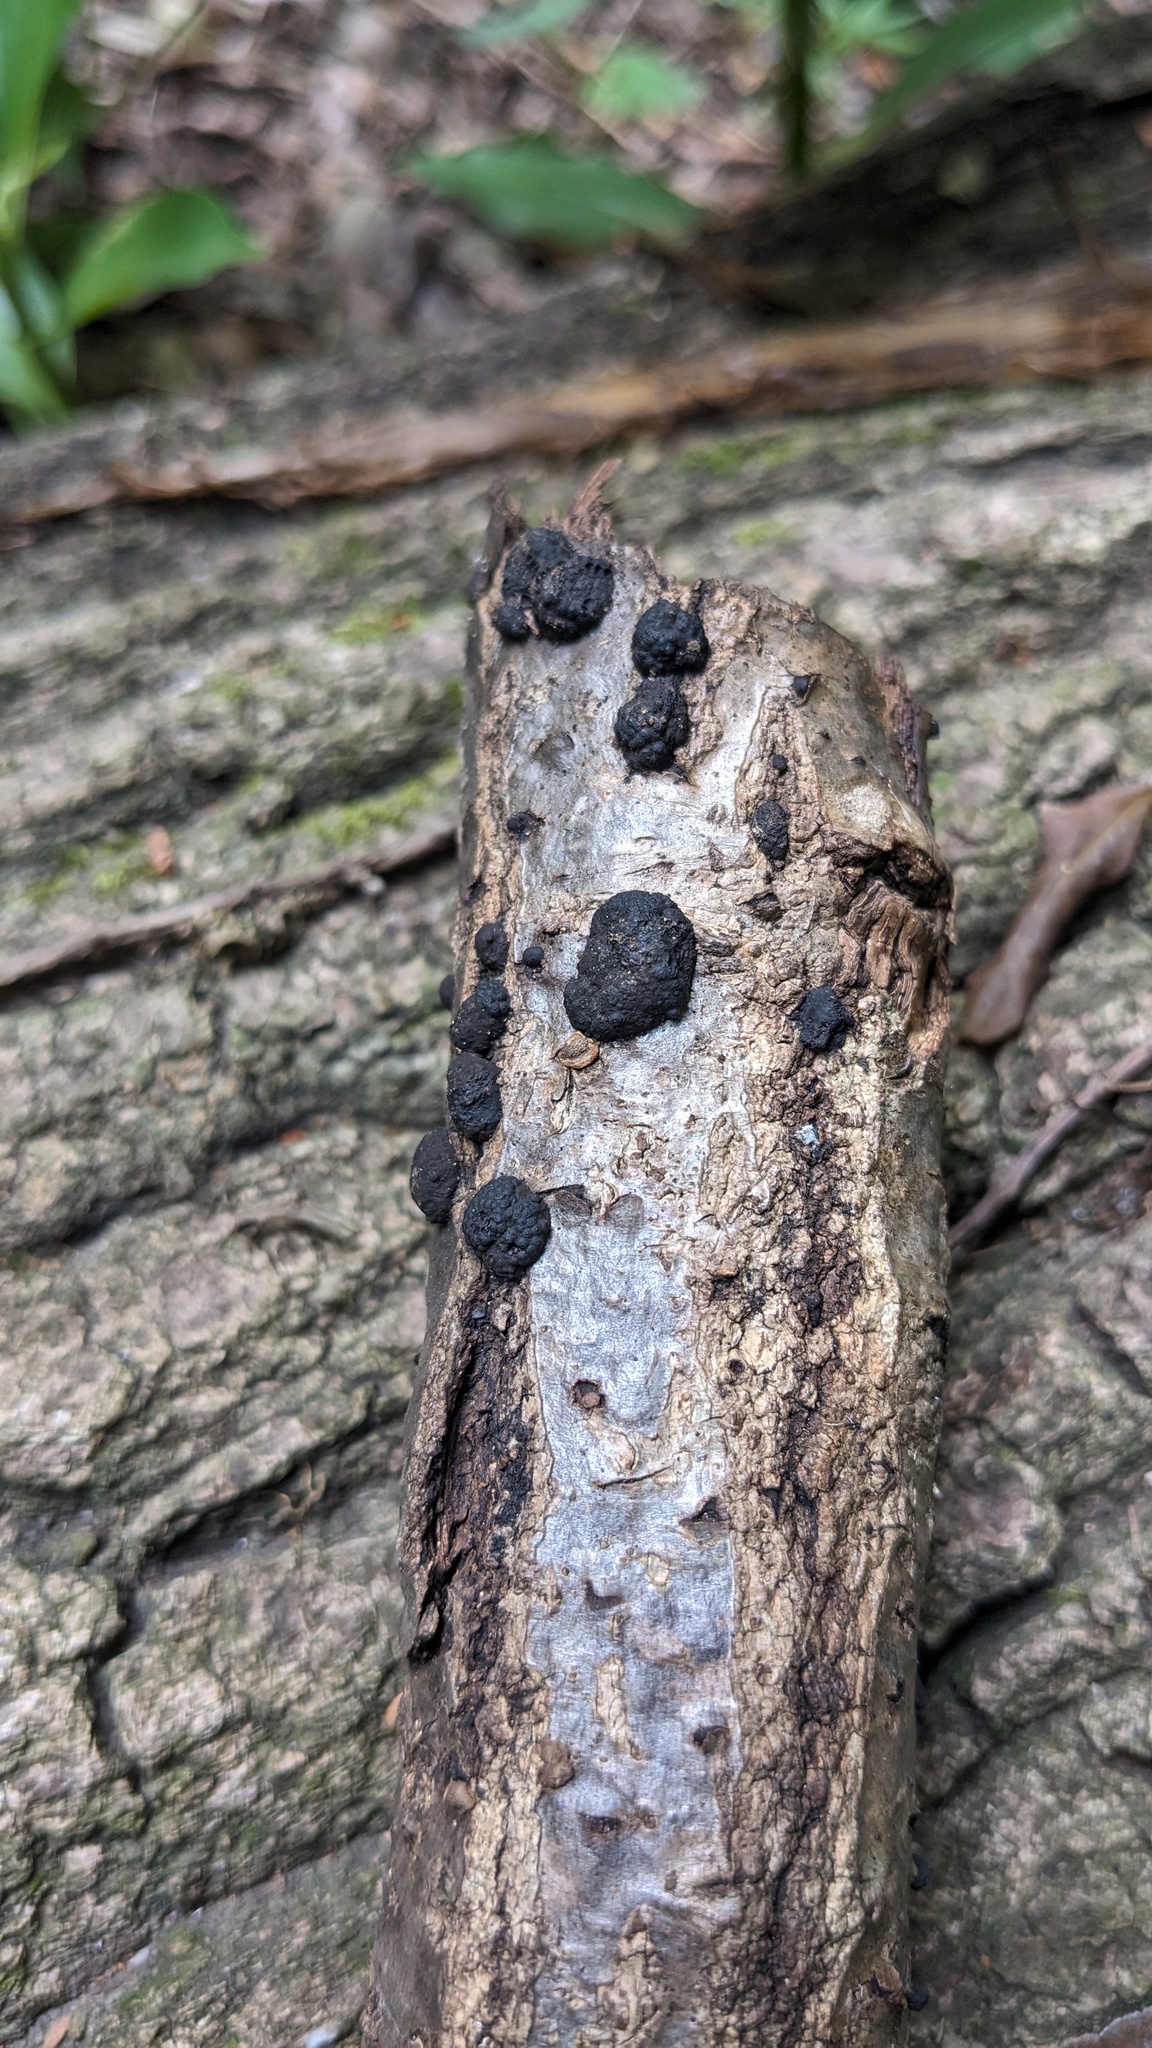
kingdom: Fungi
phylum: Ascomycota
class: Sordariomycetes
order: Xylariales
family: Hypoxylaceae
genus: Annulohypoxylon
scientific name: Annulohypoxylon truncatum
